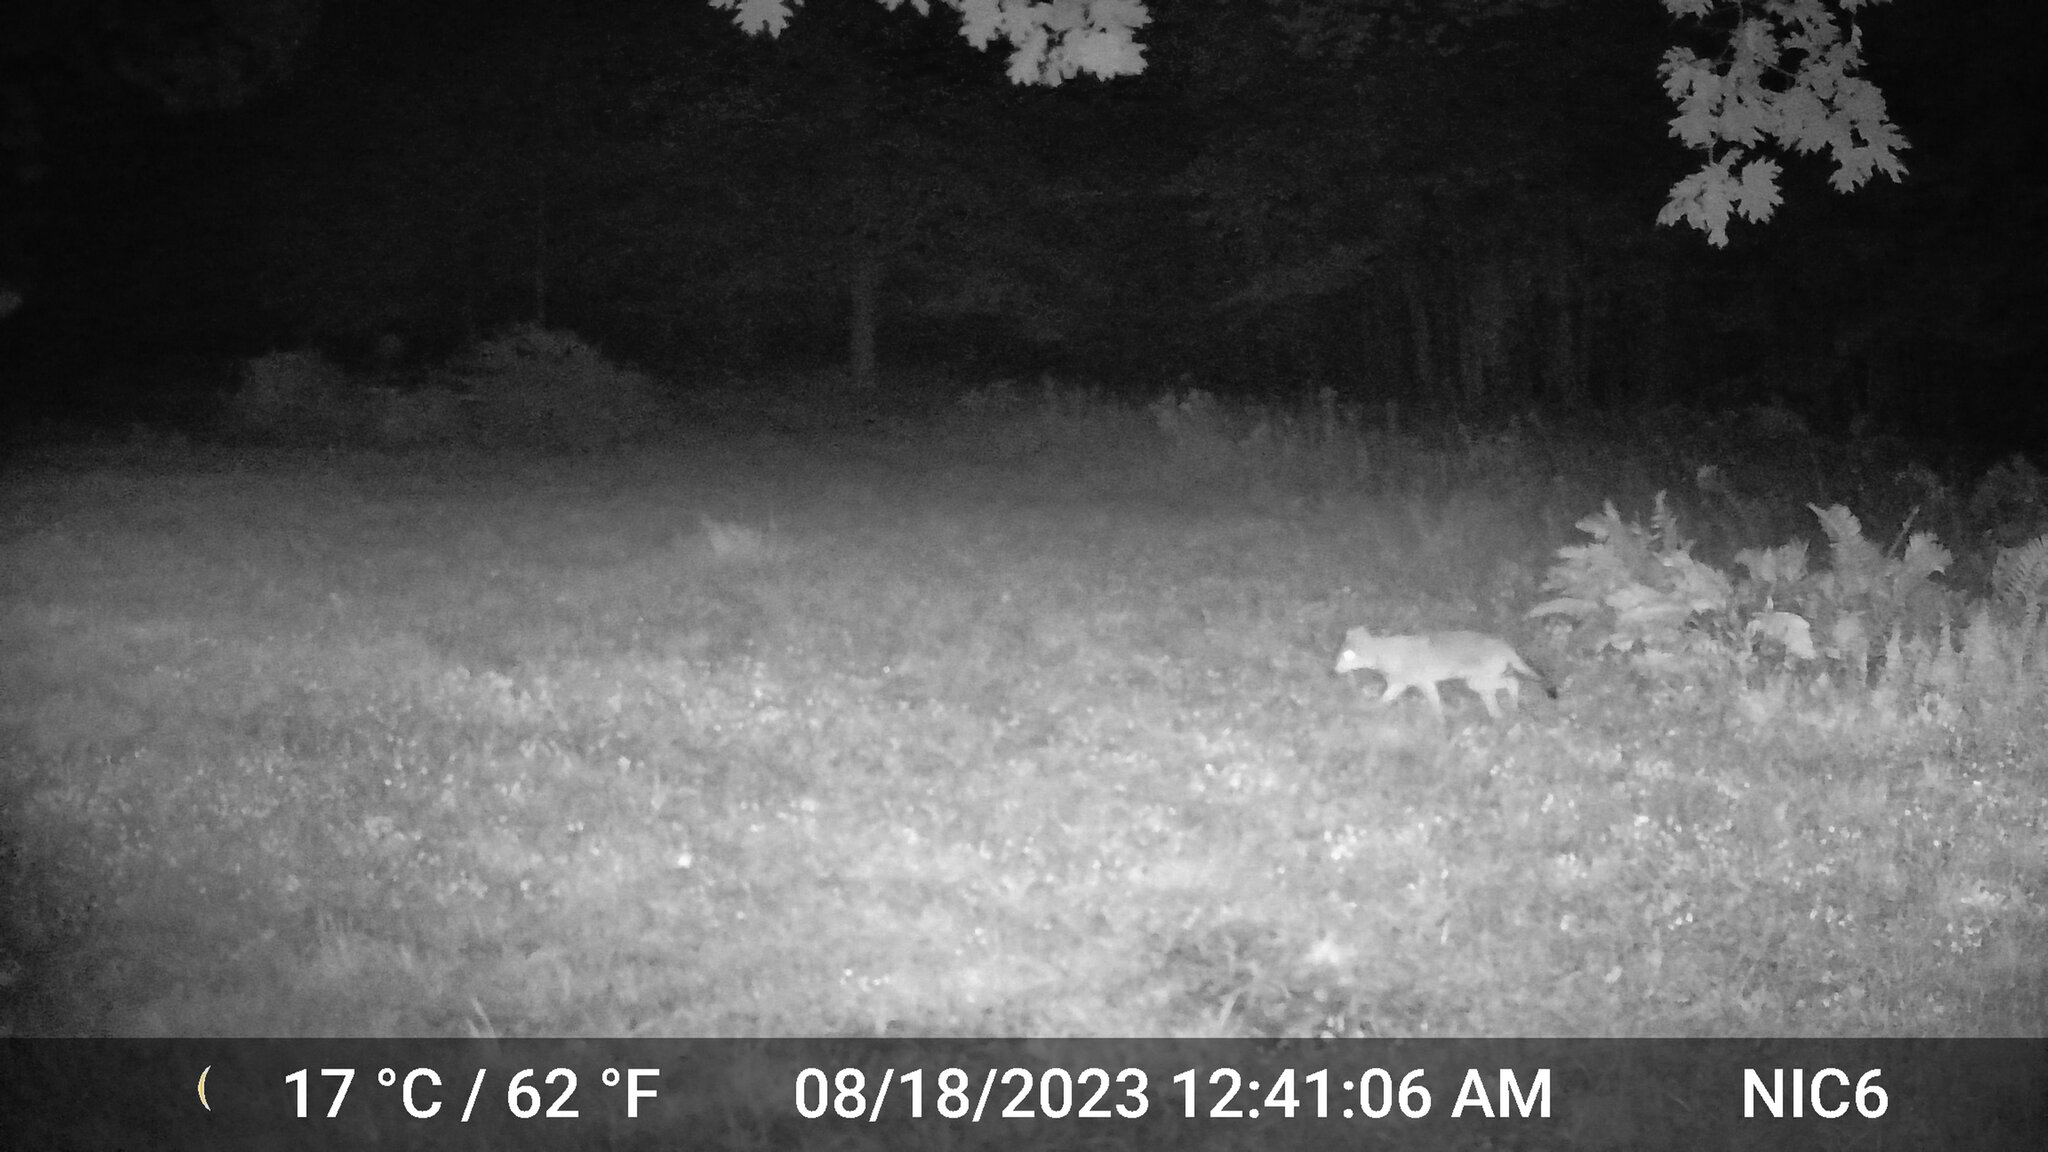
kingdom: Animalia
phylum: Chordata
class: Mammalia
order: Carnivora
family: Canidae
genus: Canis
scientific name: Canis latrans
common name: Coyote
